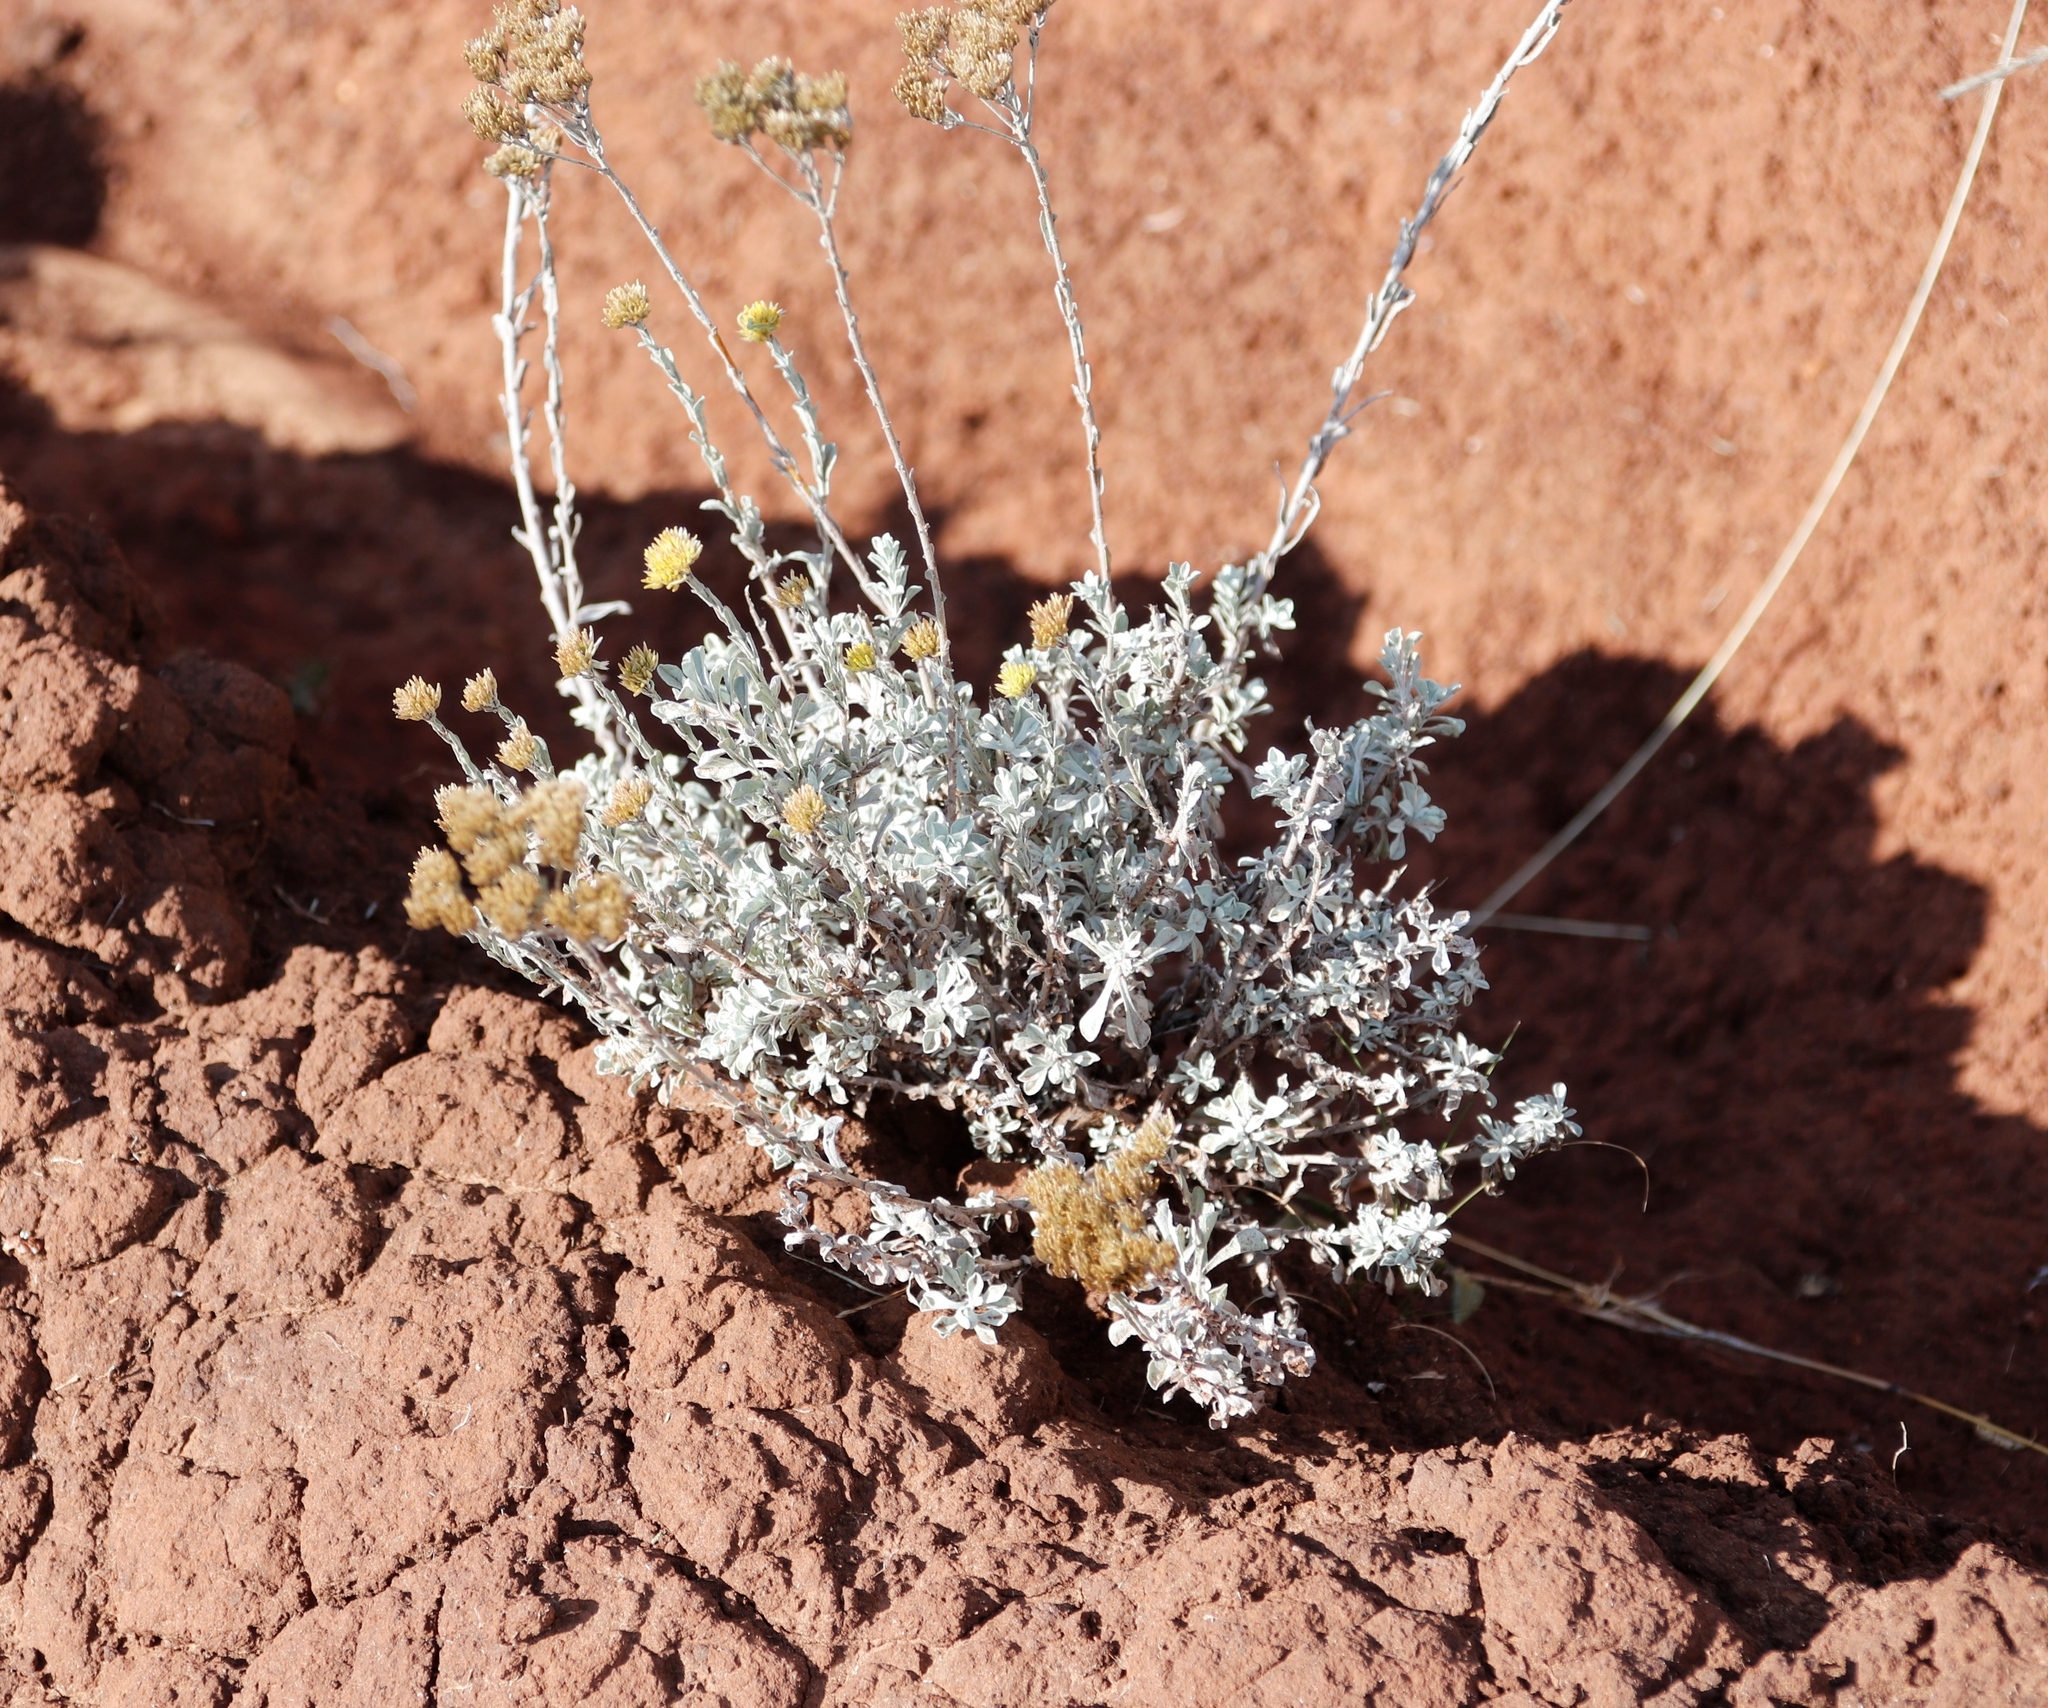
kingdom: Plantae
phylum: Tracheophyta
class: Magnoliopsida
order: Asterales
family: Asteraceae
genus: Helichrysum
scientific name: Helichrysum callicomum
